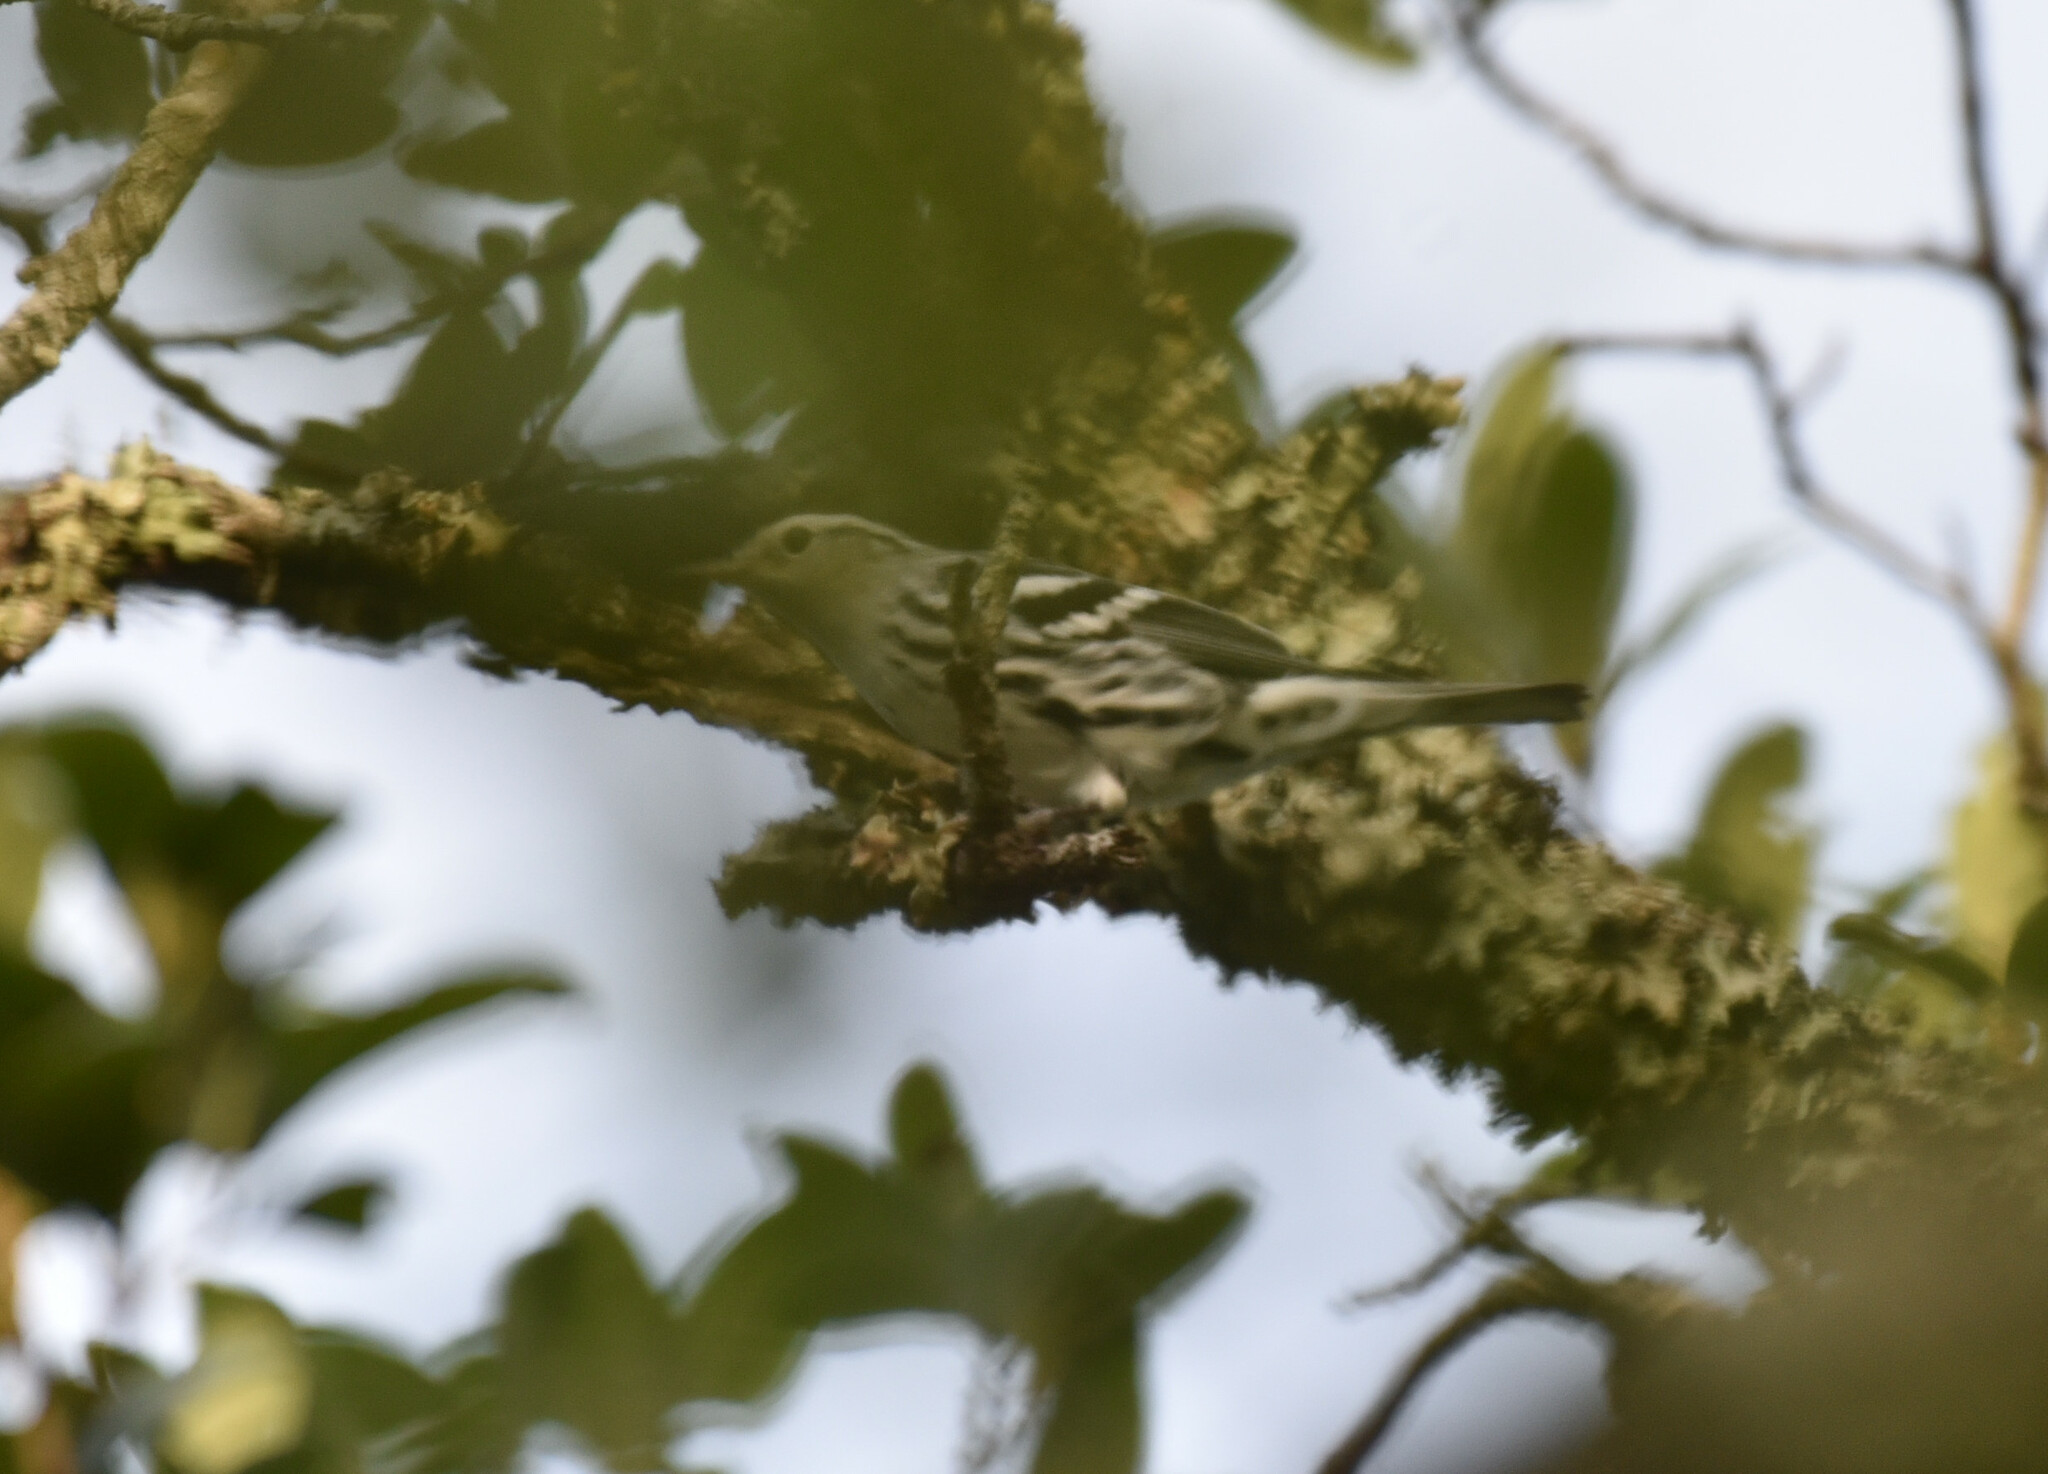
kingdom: Animalia
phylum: Chordata
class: Aves
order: Passeriformes
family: Parulidae
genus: Mniotilta
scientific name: Mniotilta varia
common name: Black-and-white warbler
